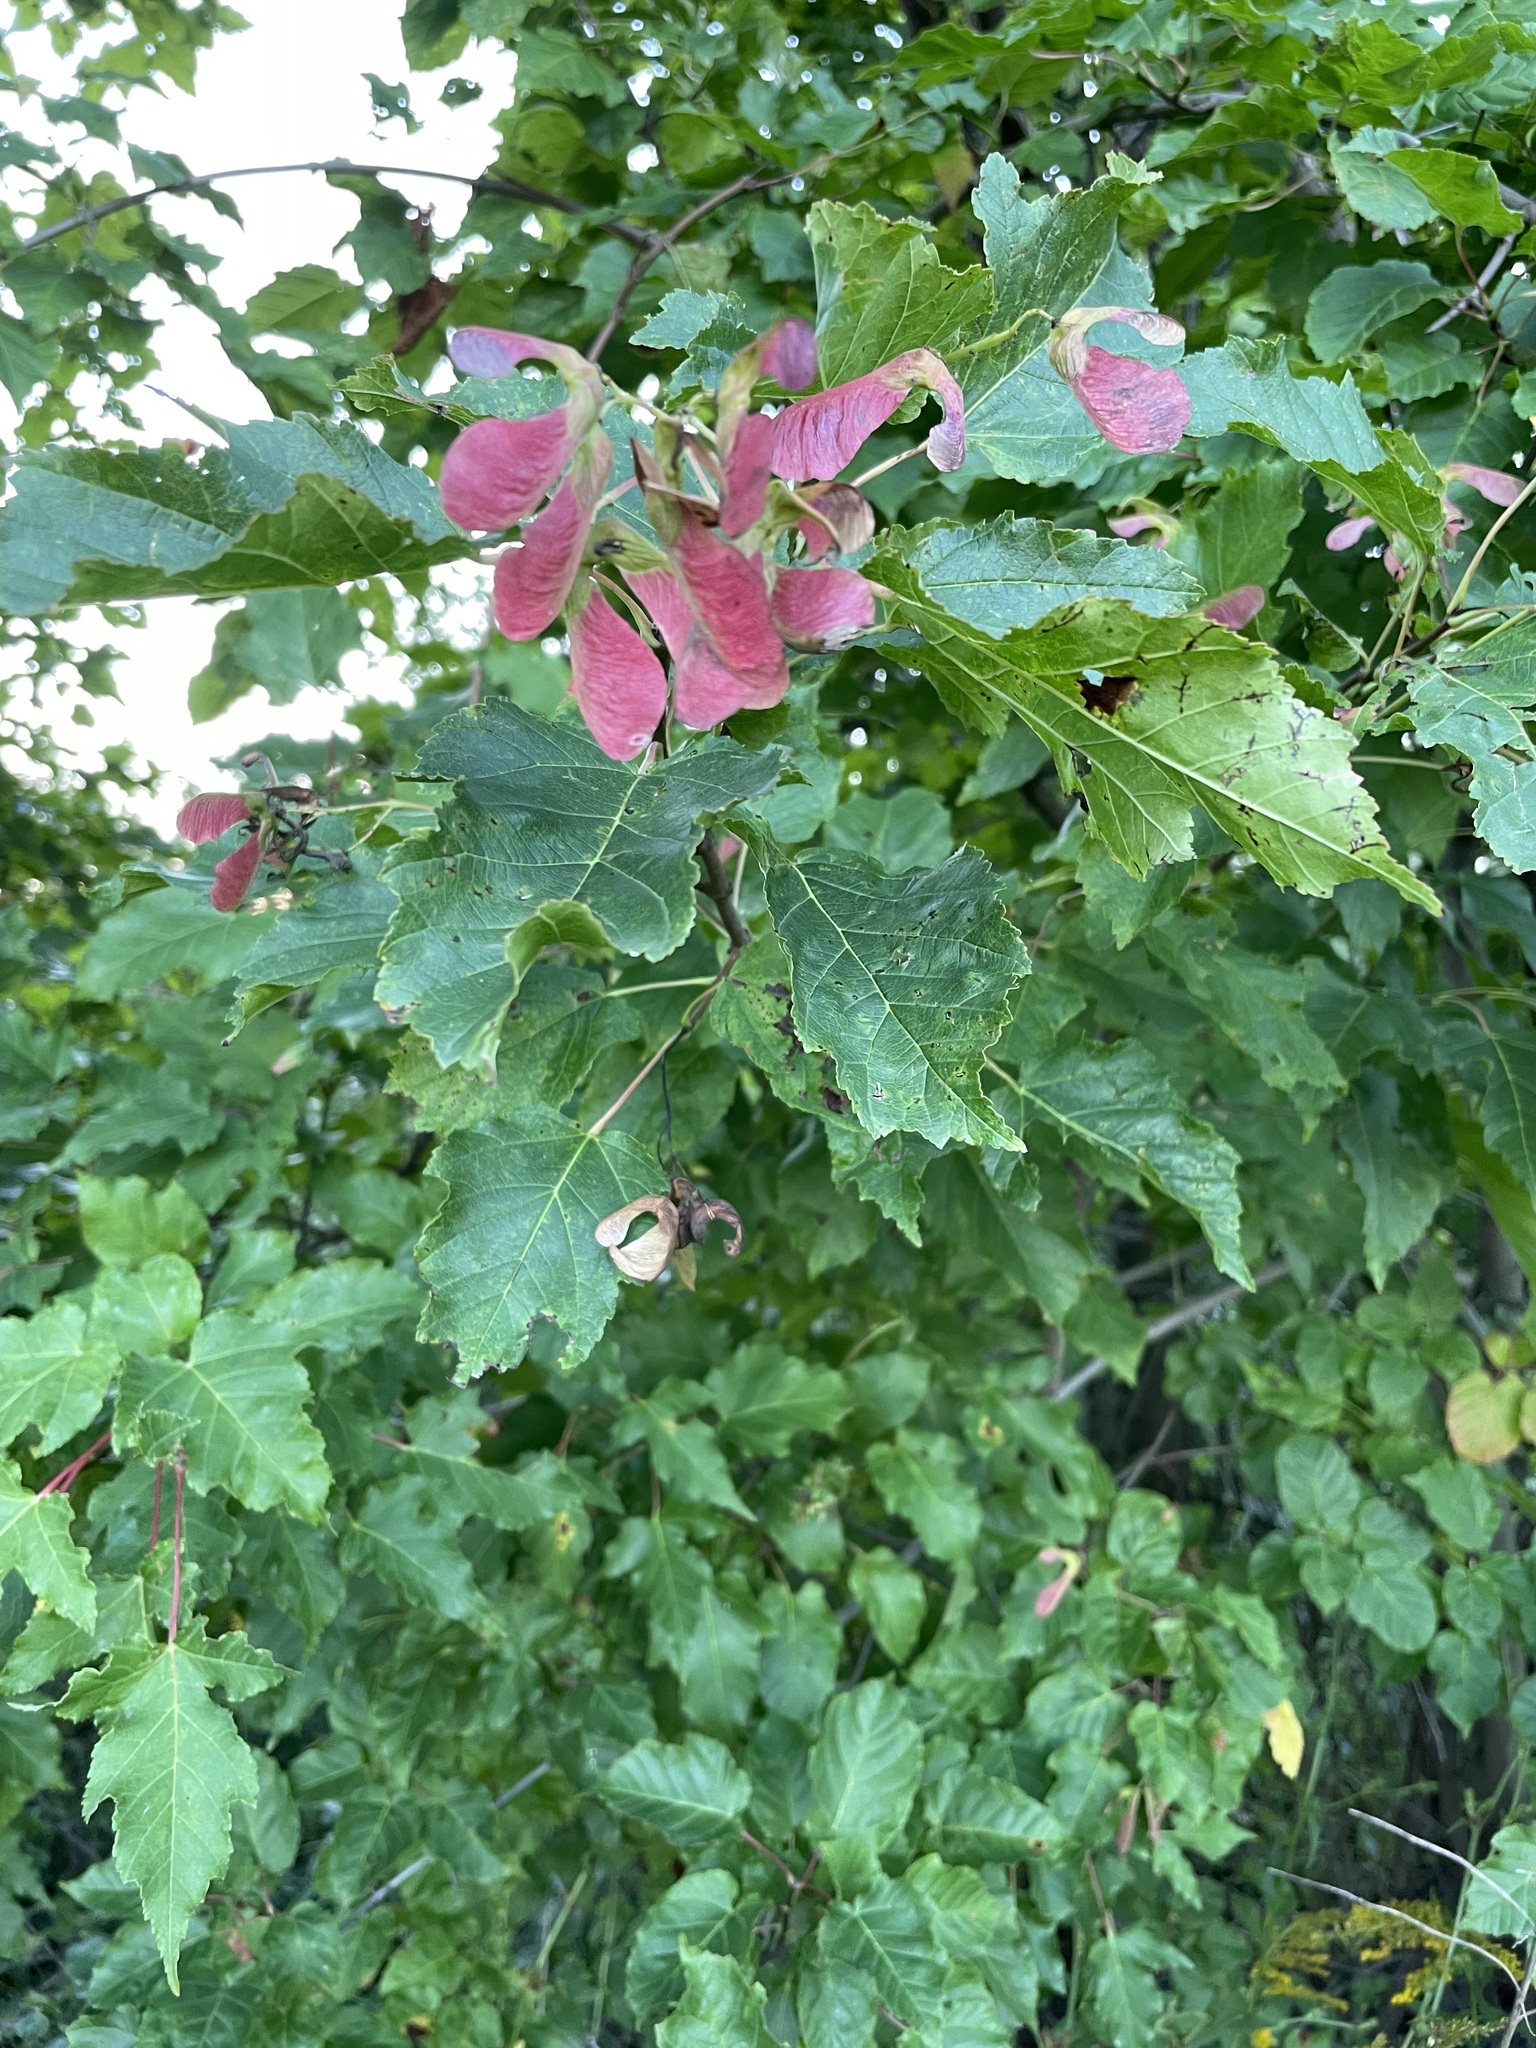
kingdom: Plantae
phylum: Tracheophyta
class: Magnoliopsida
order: Sapindales
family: Sapindaceae
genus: Acer
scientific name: Acer tataricum
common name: Tartar maple
